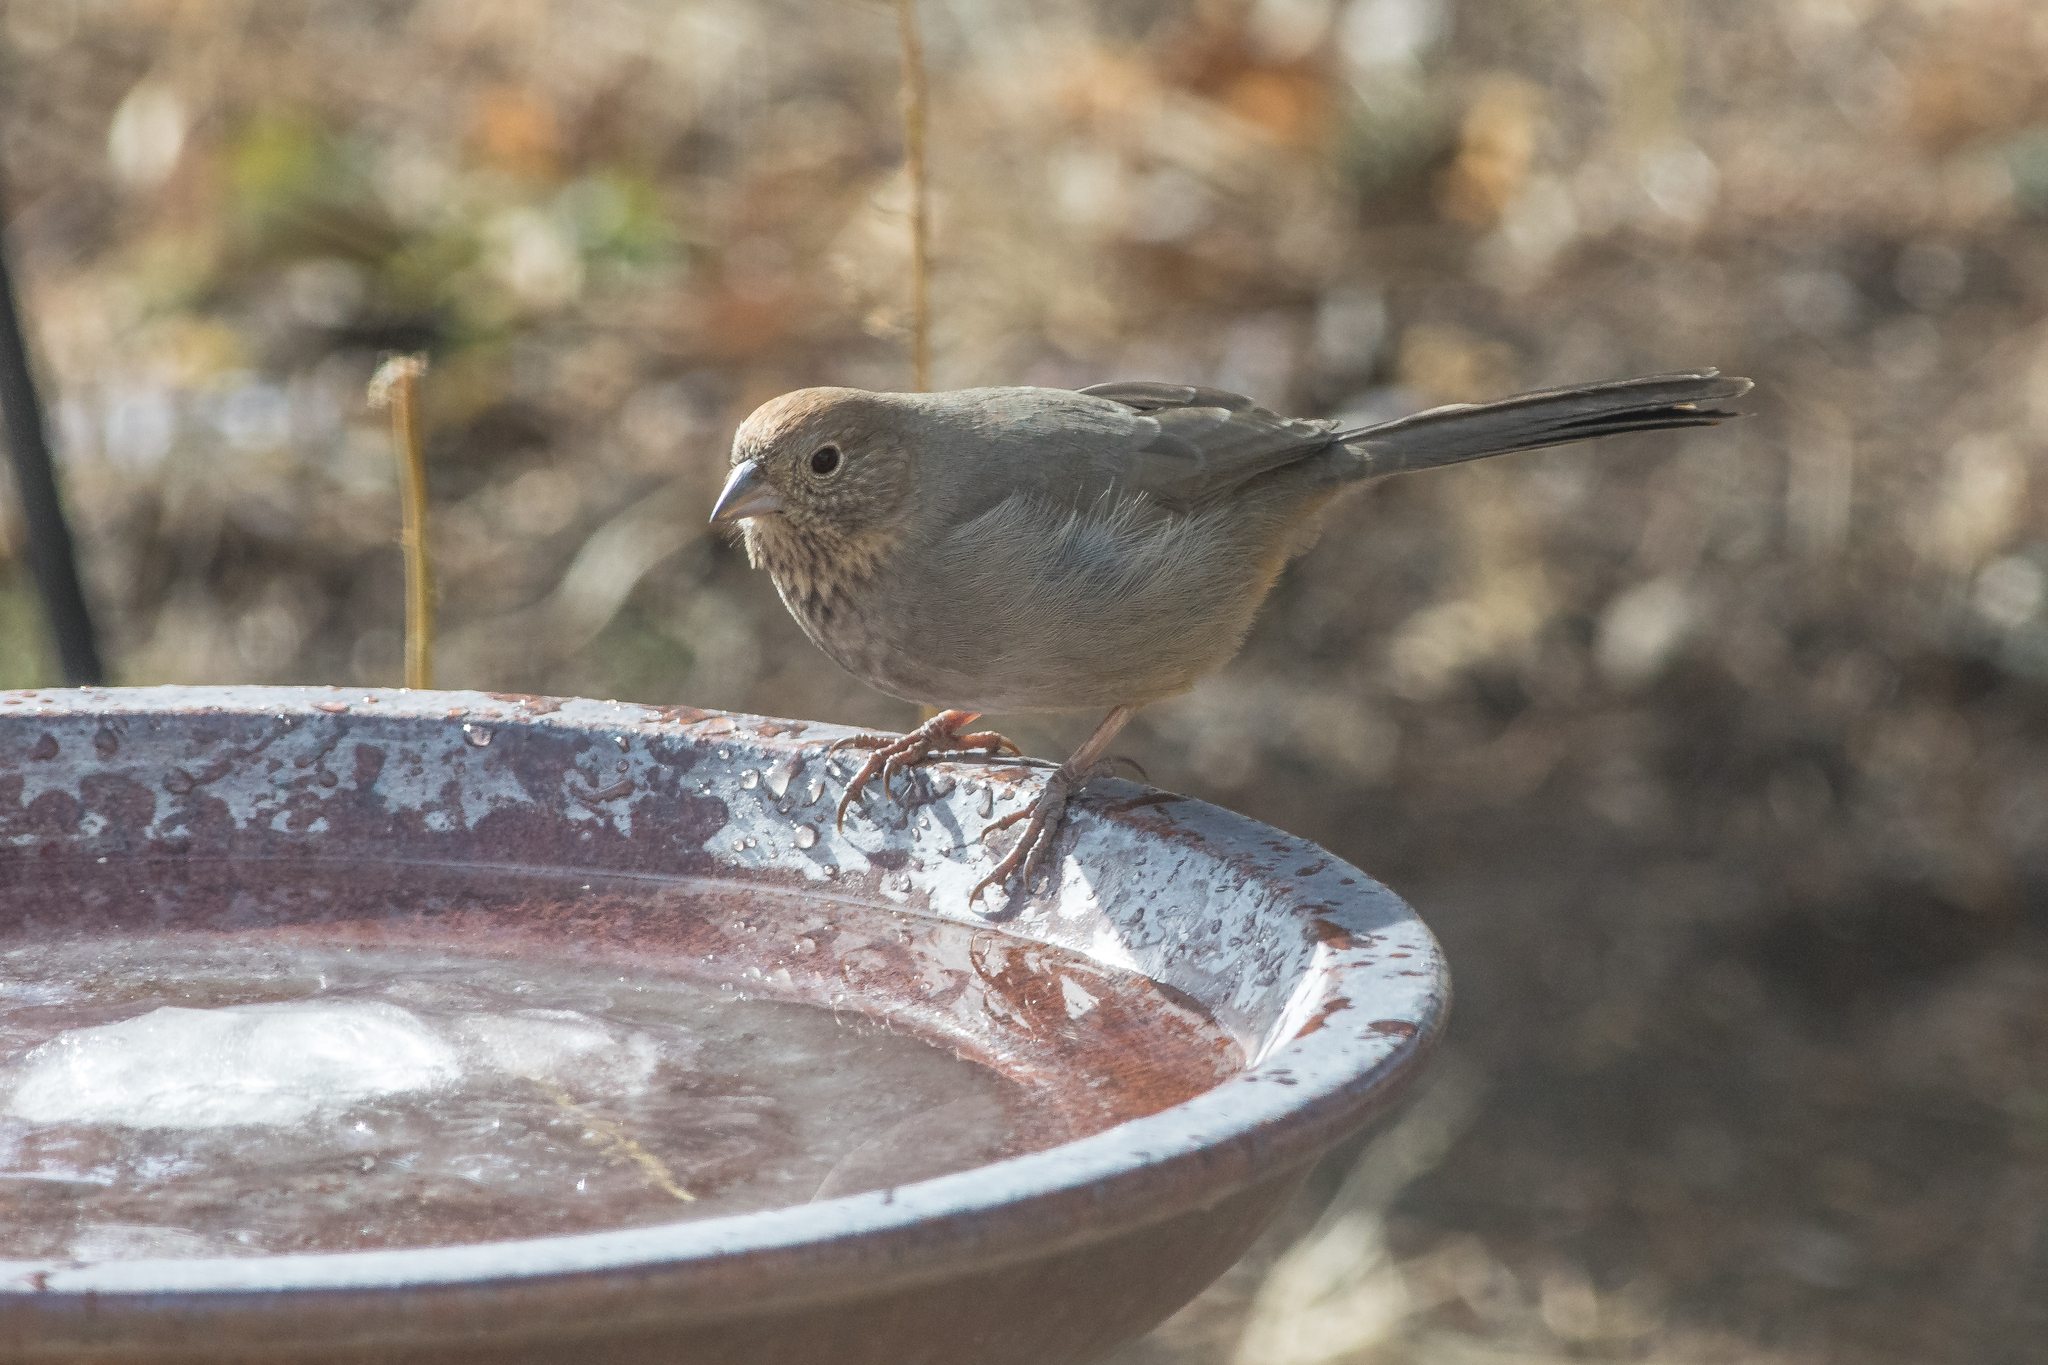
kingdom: Animalia
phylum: Chordata
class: Aves
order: Passeriformes
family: Passerellidae
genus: Melozone
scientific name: Melozone fusca
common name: Canyon towhee
